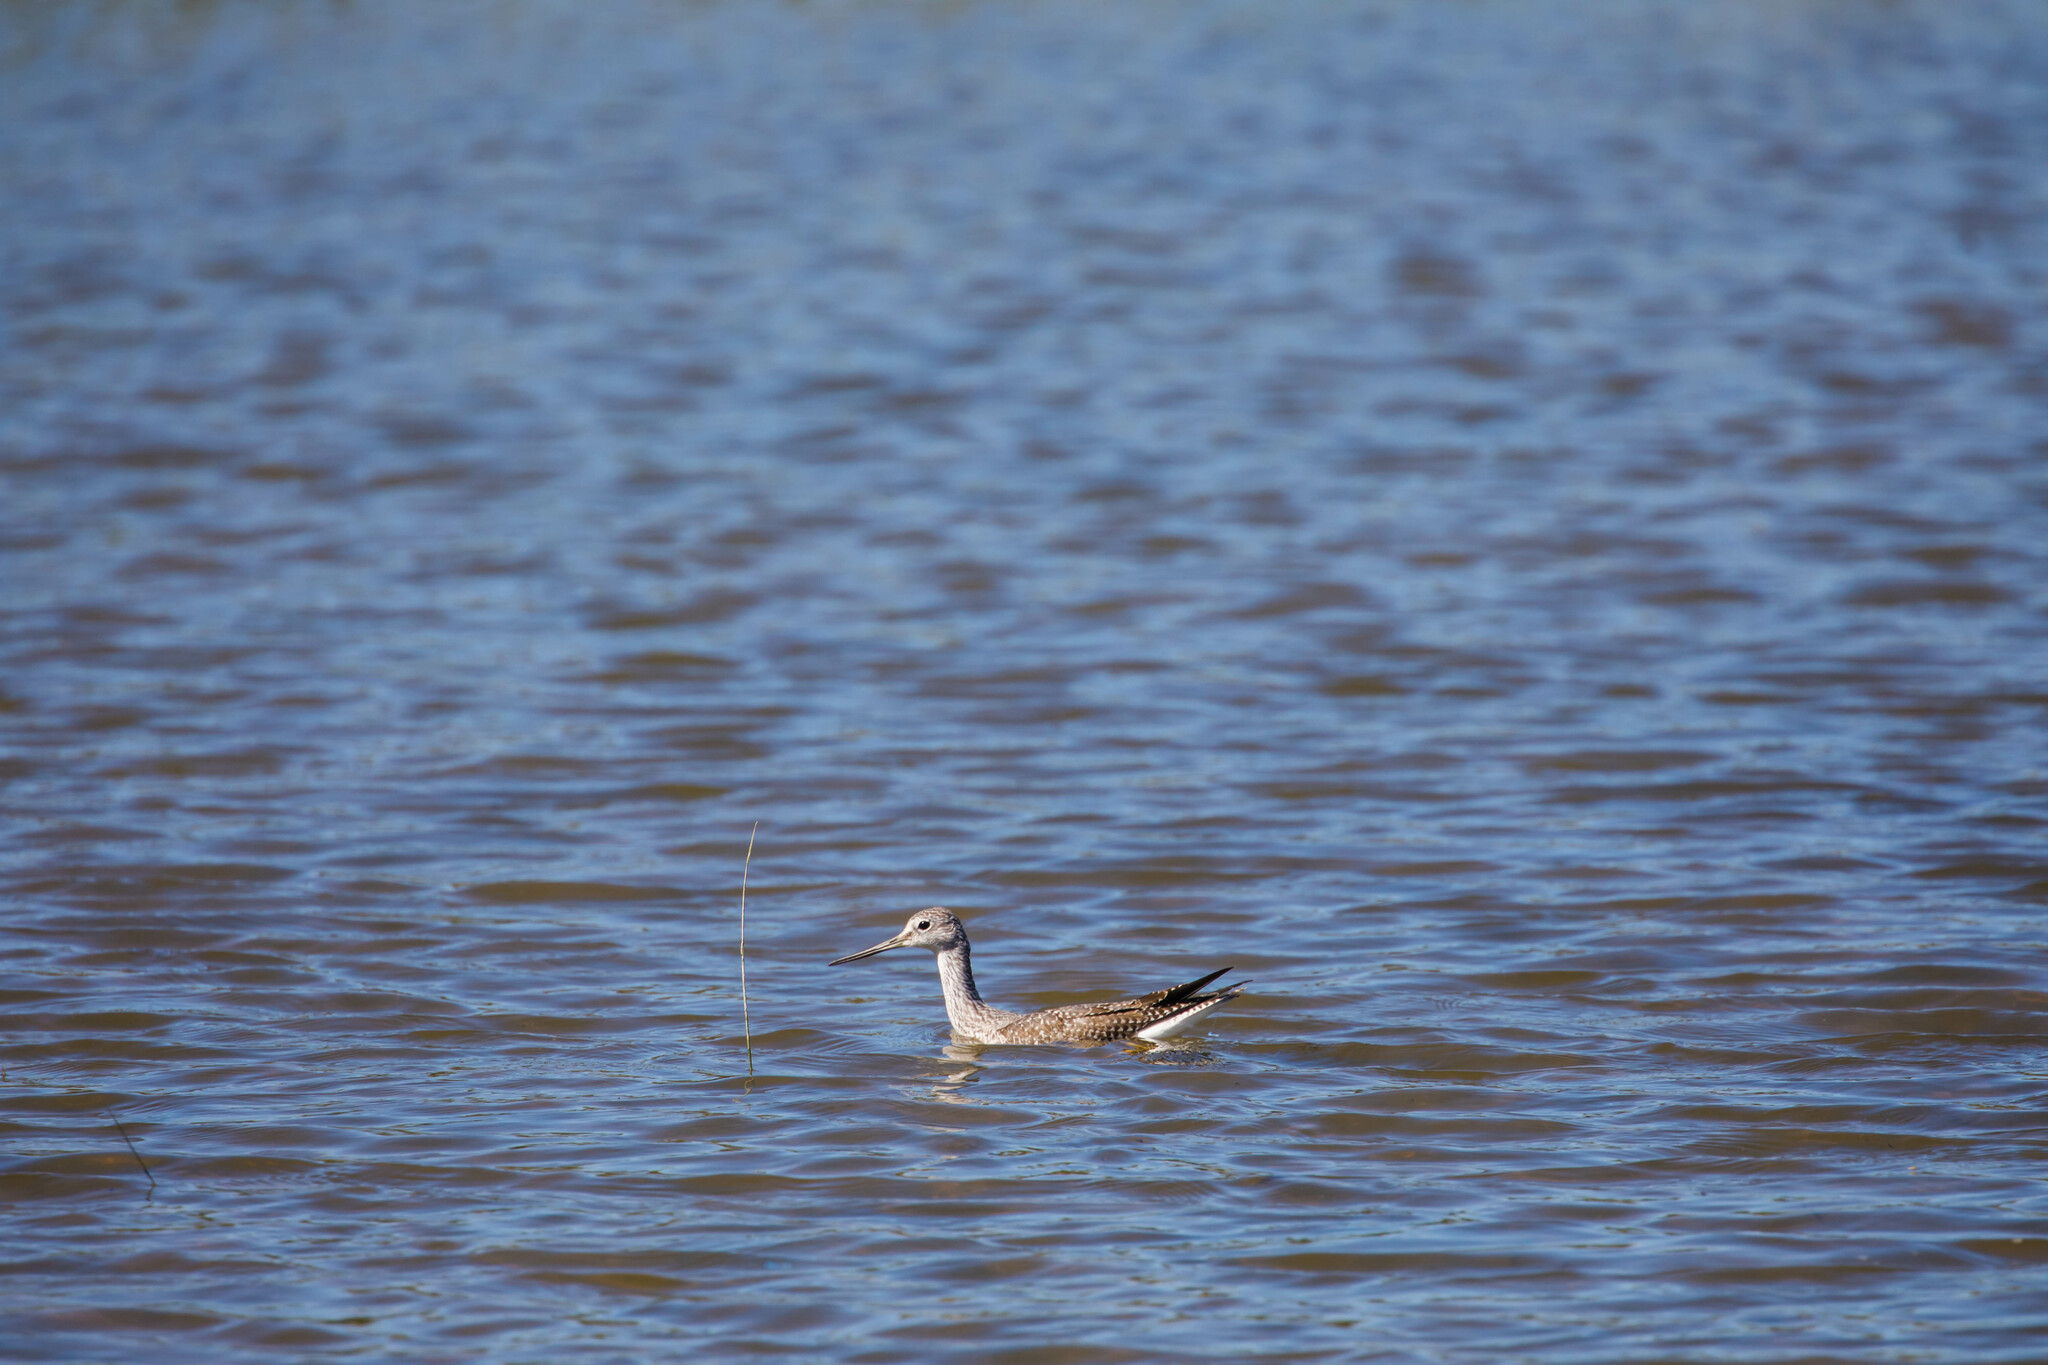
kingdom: Animalia
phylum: Chordata
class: Aves
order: Charadriiformes
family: Scolopacidae
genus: Tringa
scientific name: Tringa melanoleuca
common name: Greater yellowlegs
